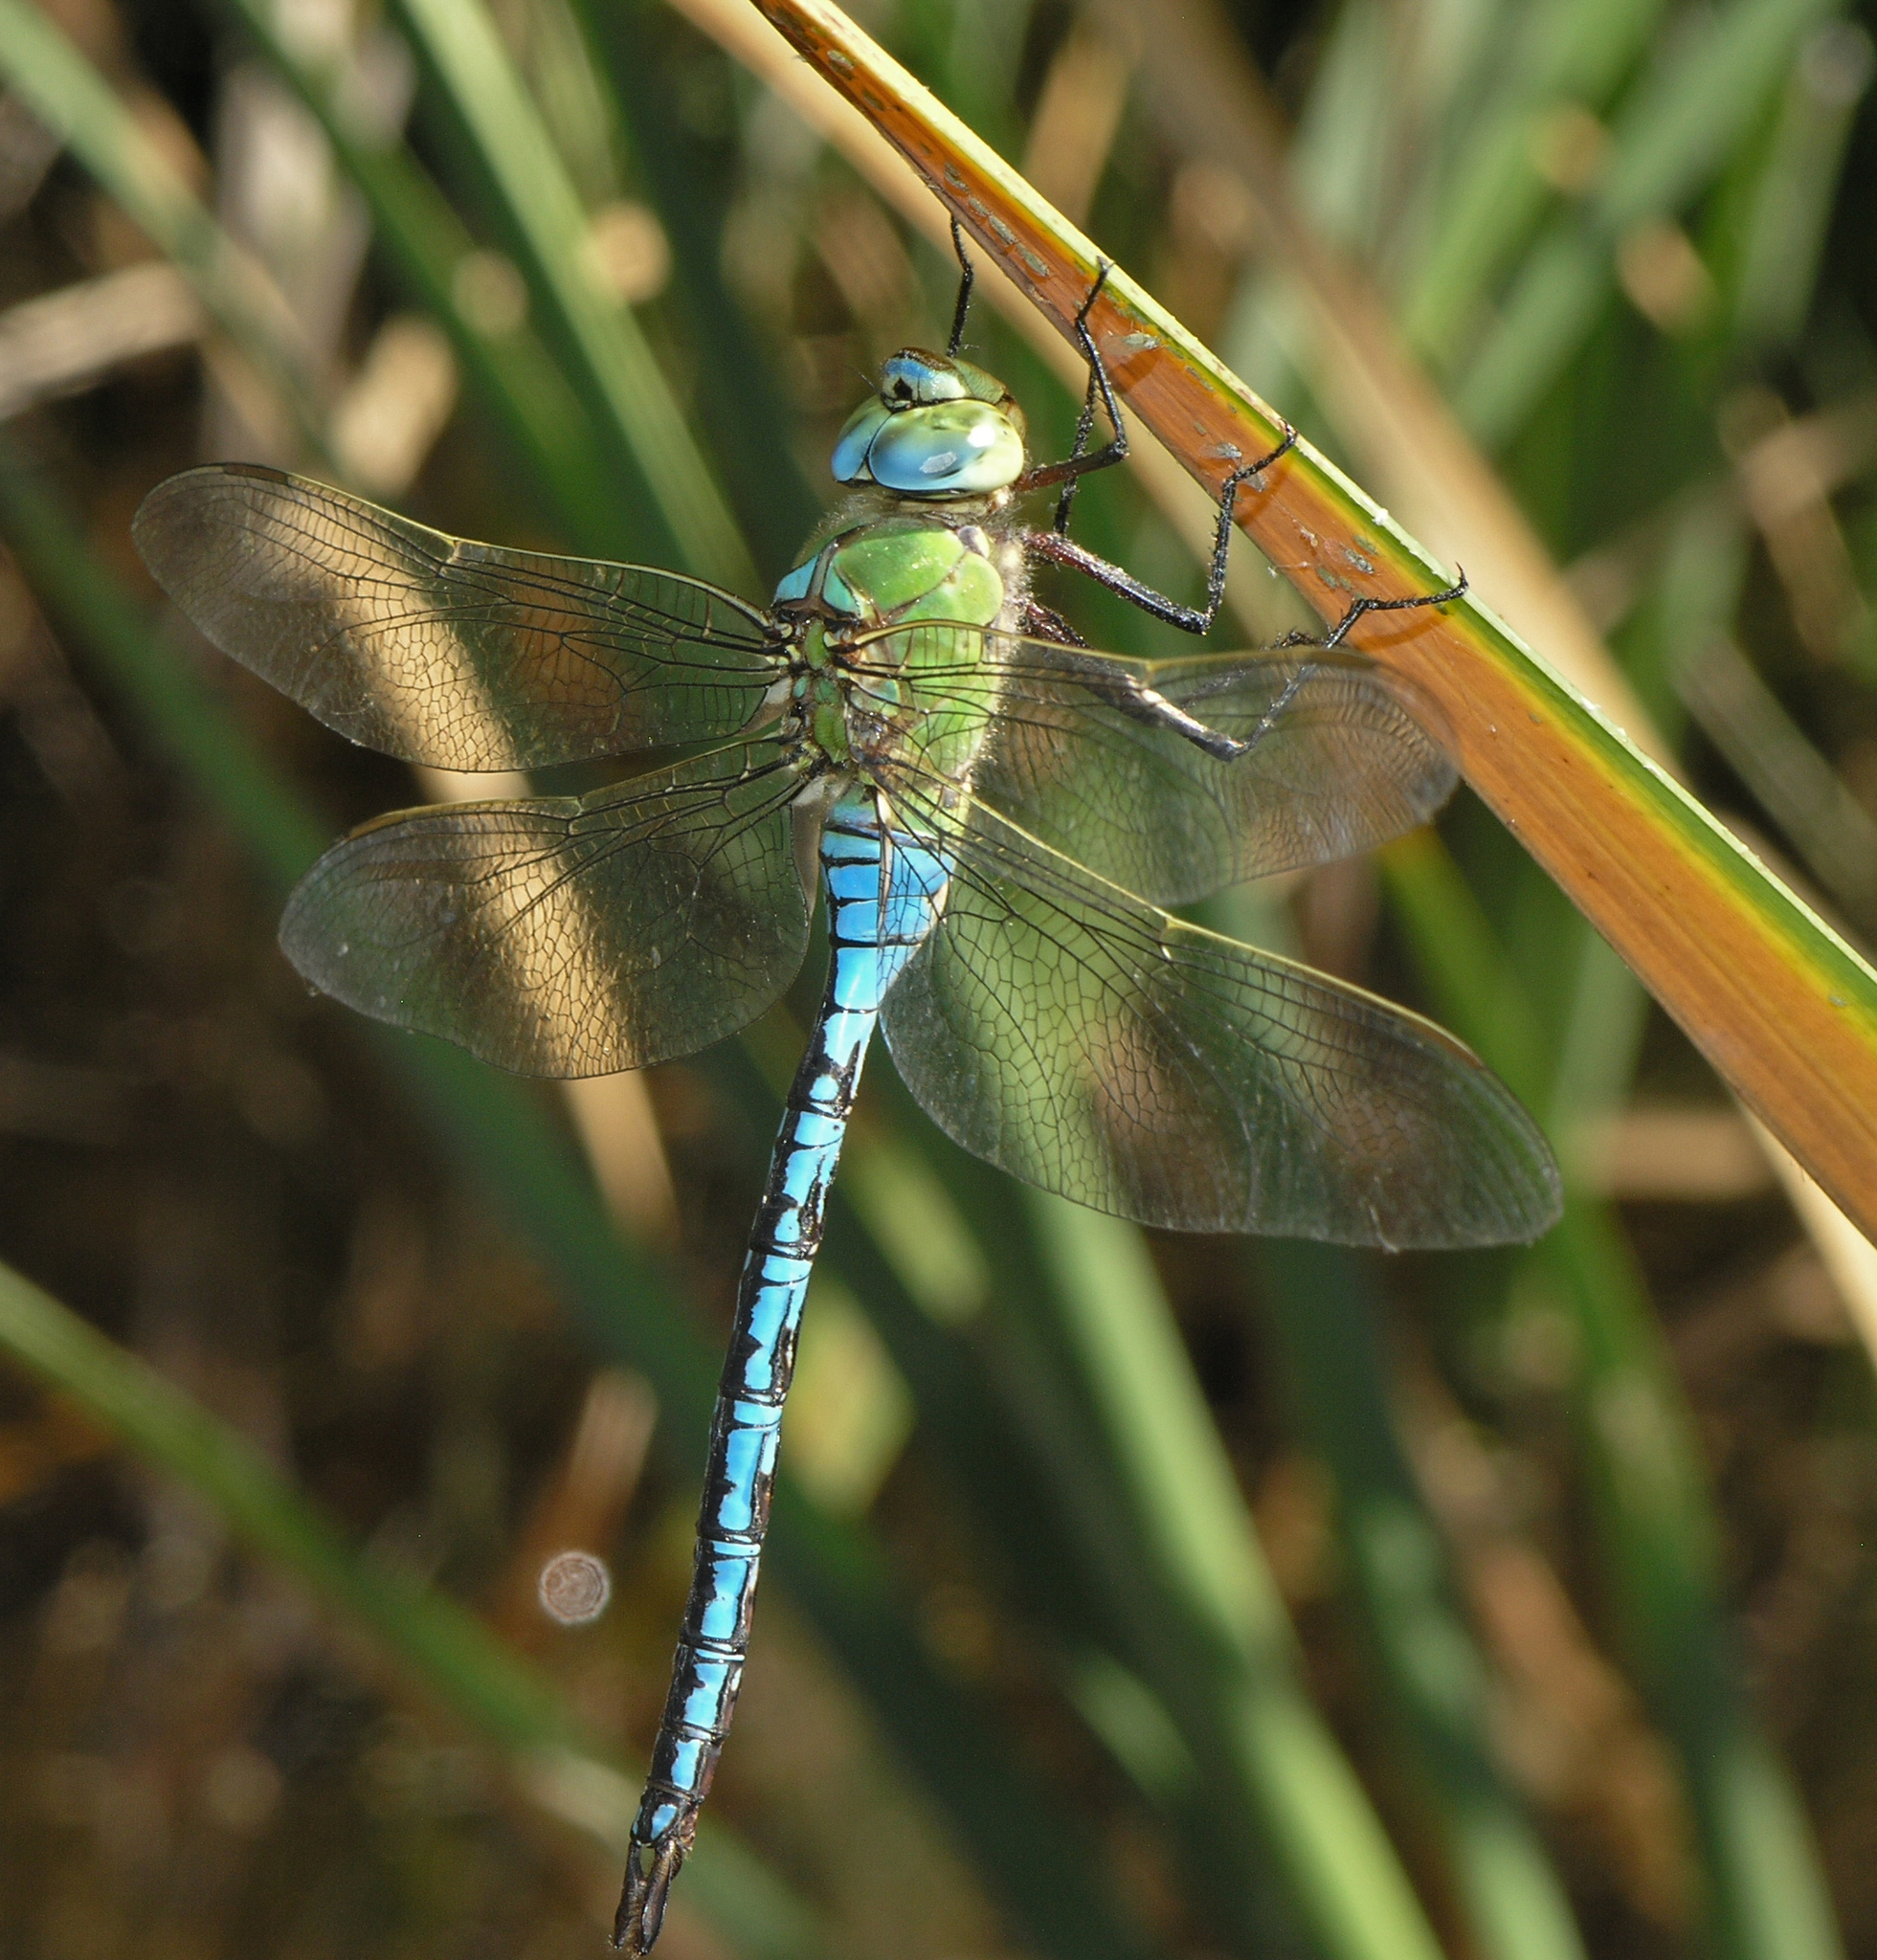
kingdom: Animalia
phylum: Arthropoda
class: Insecta
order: Odonata
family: Aeshnidae
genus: Anax
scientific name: Anax imperator
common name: Emperor dragonfly
